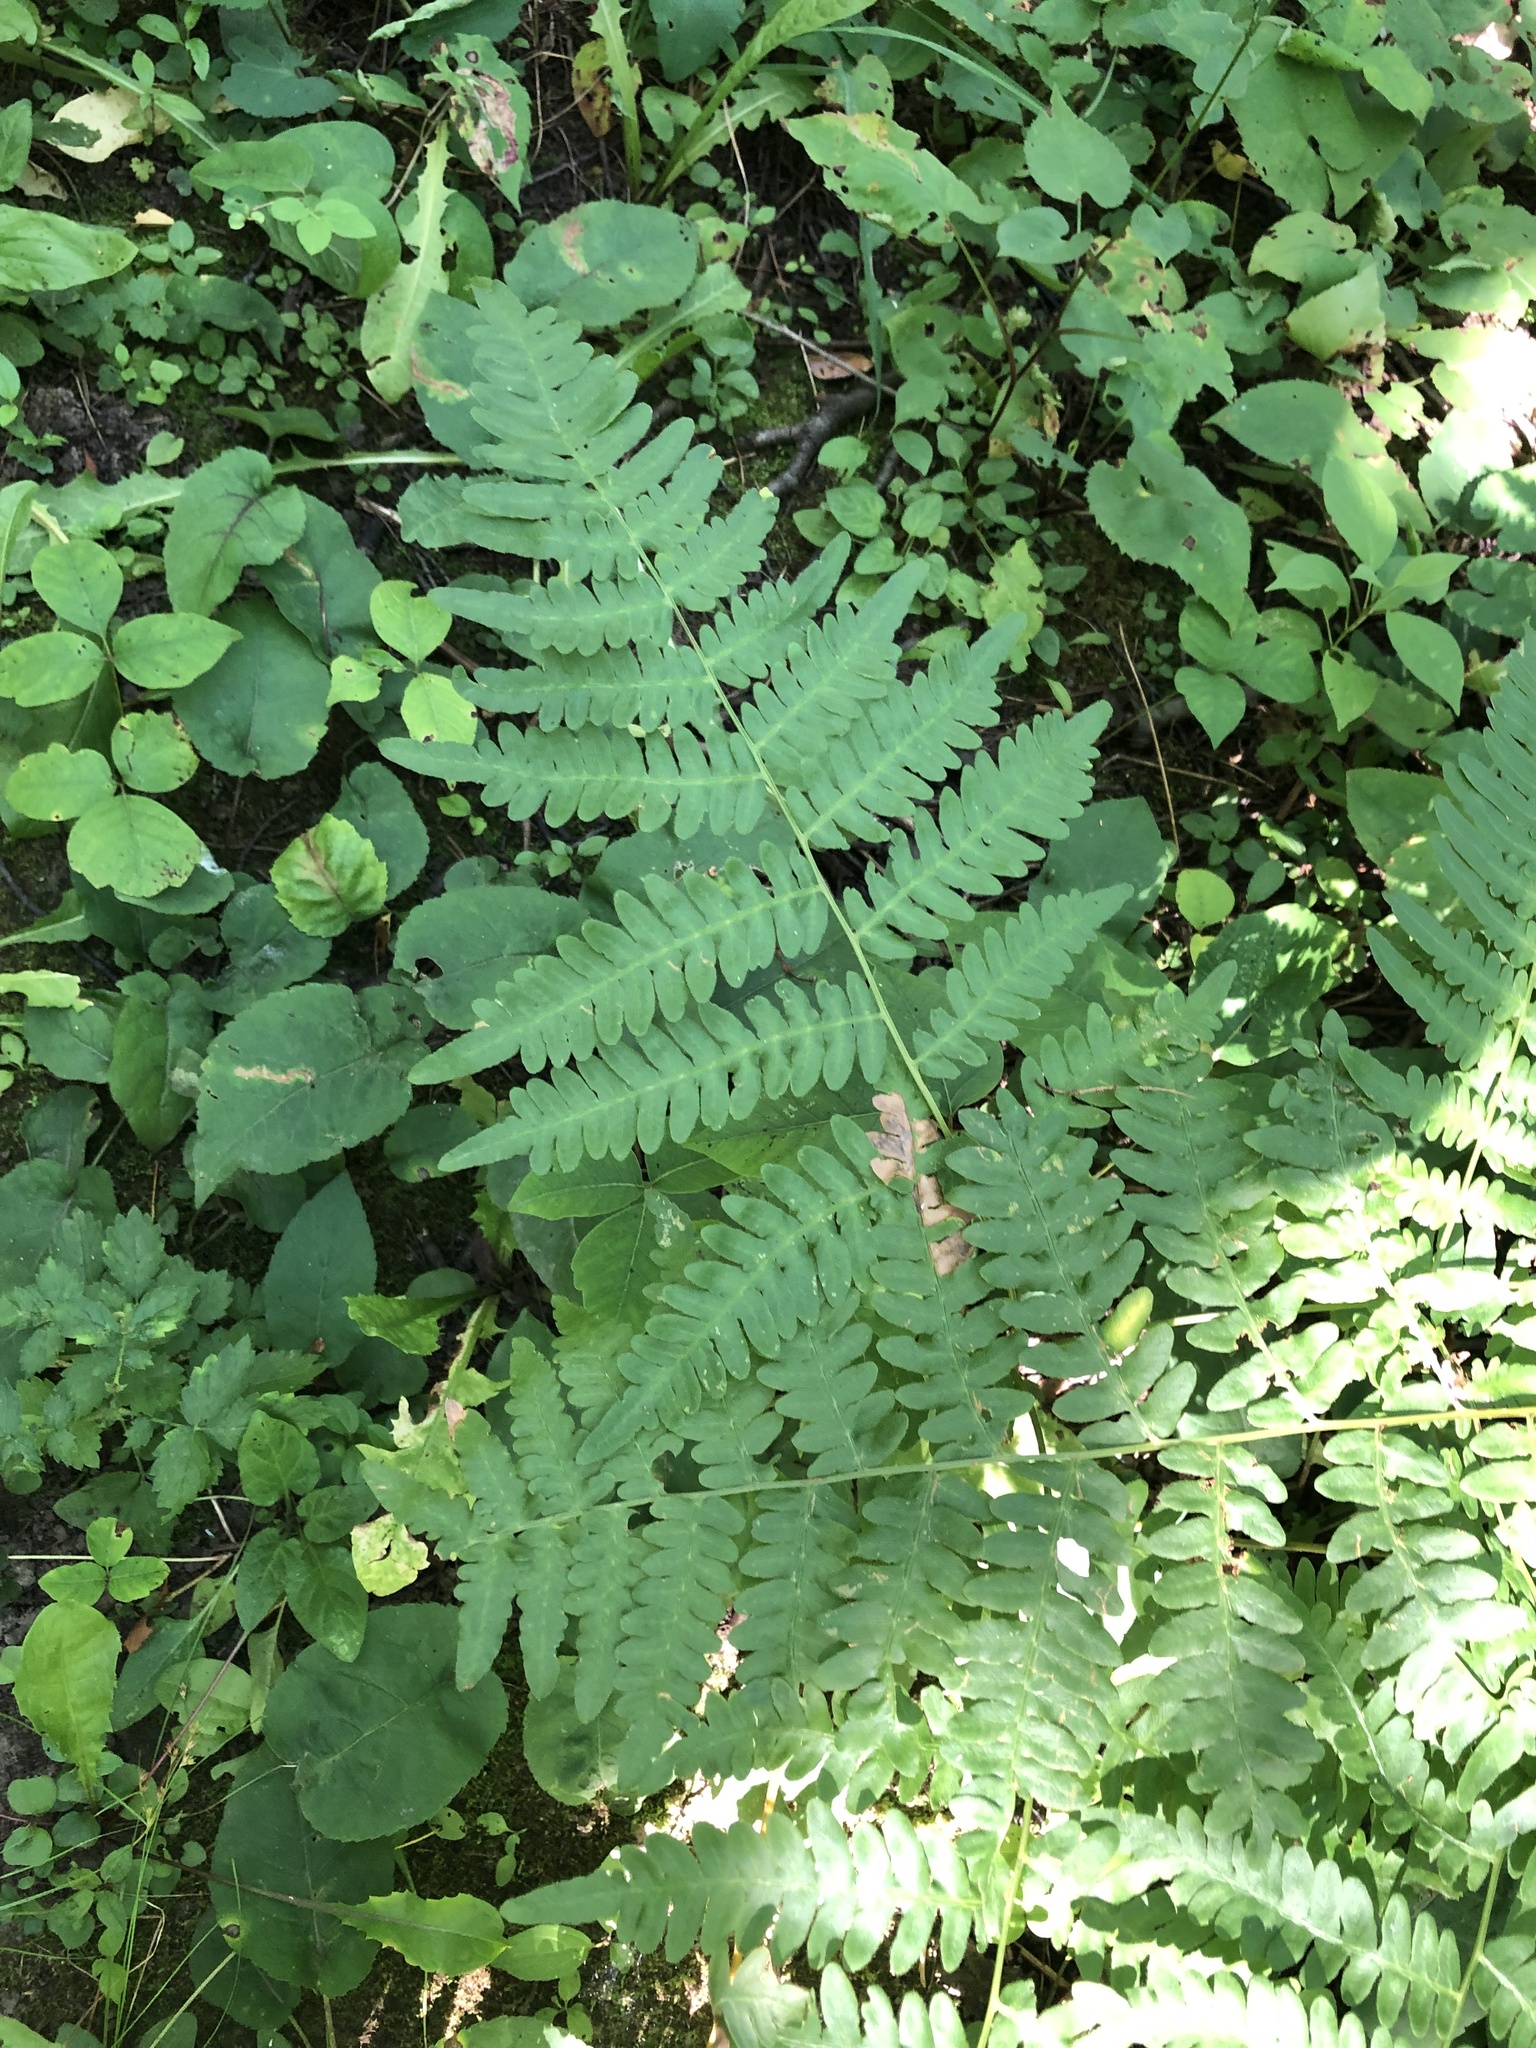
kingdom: Plantae
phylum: Tracheophyta
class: Polypodiopsida
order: Polypodiales
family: Dennstaedtiaceae
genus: Pteridium
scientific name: Pteridium aquilinum
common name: Bracken
